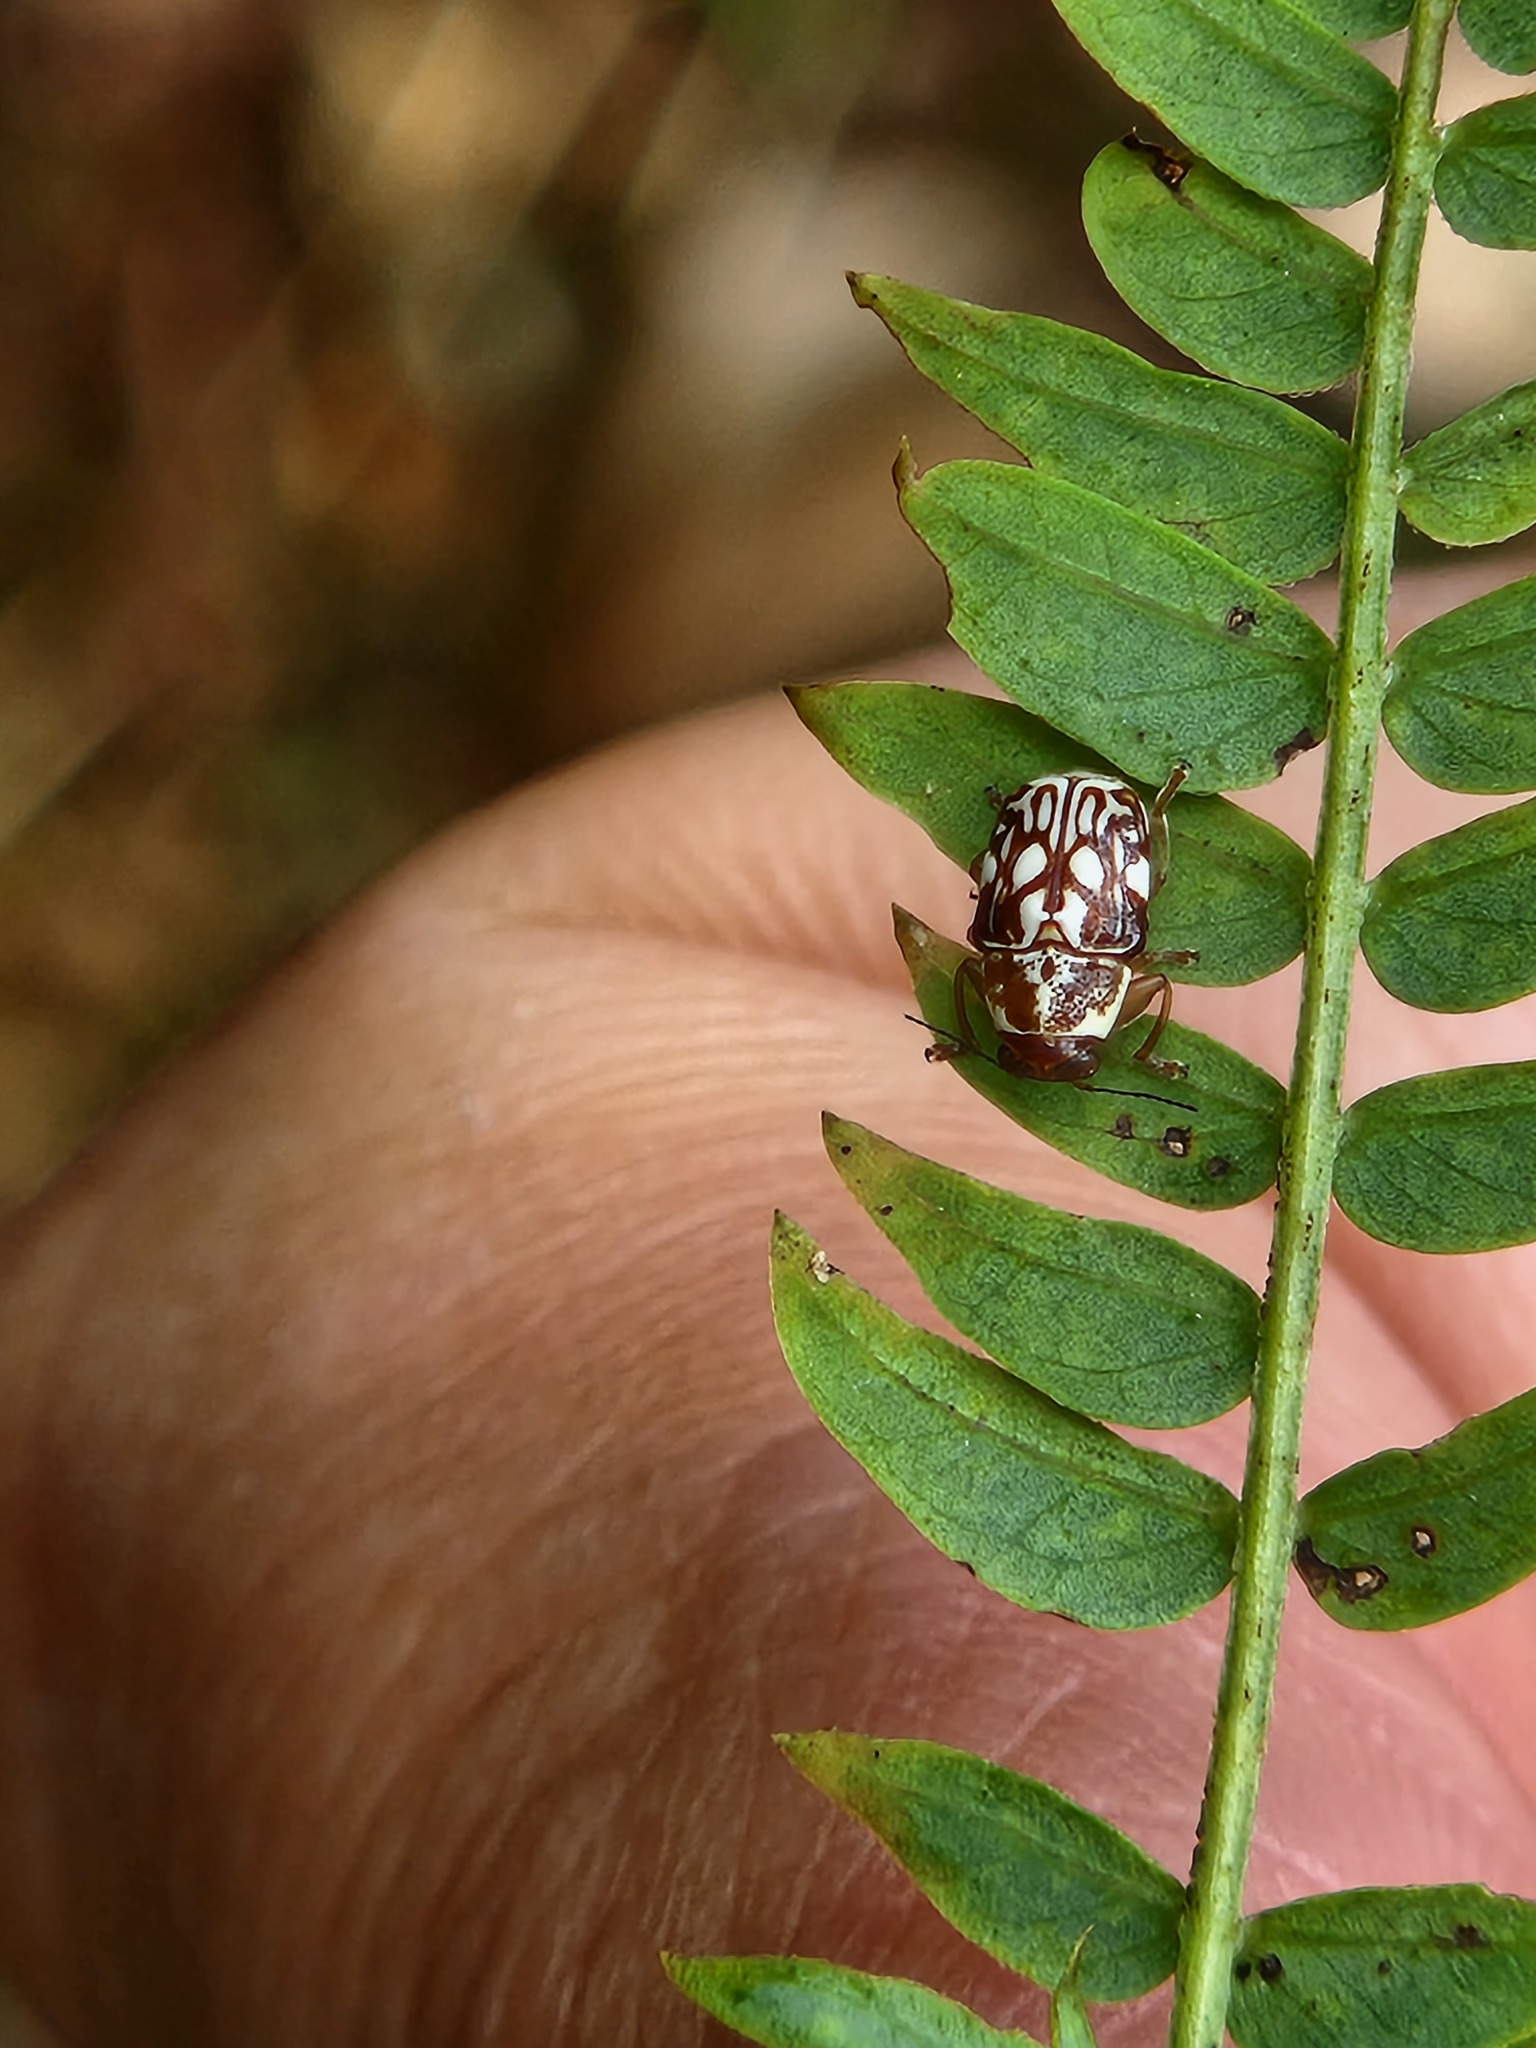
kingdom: Animalia
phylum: Arthropoda
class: Insecta
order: Coleoptera
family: Chrysomelidae
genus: Pachybrachis
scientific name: Pachybrachis
